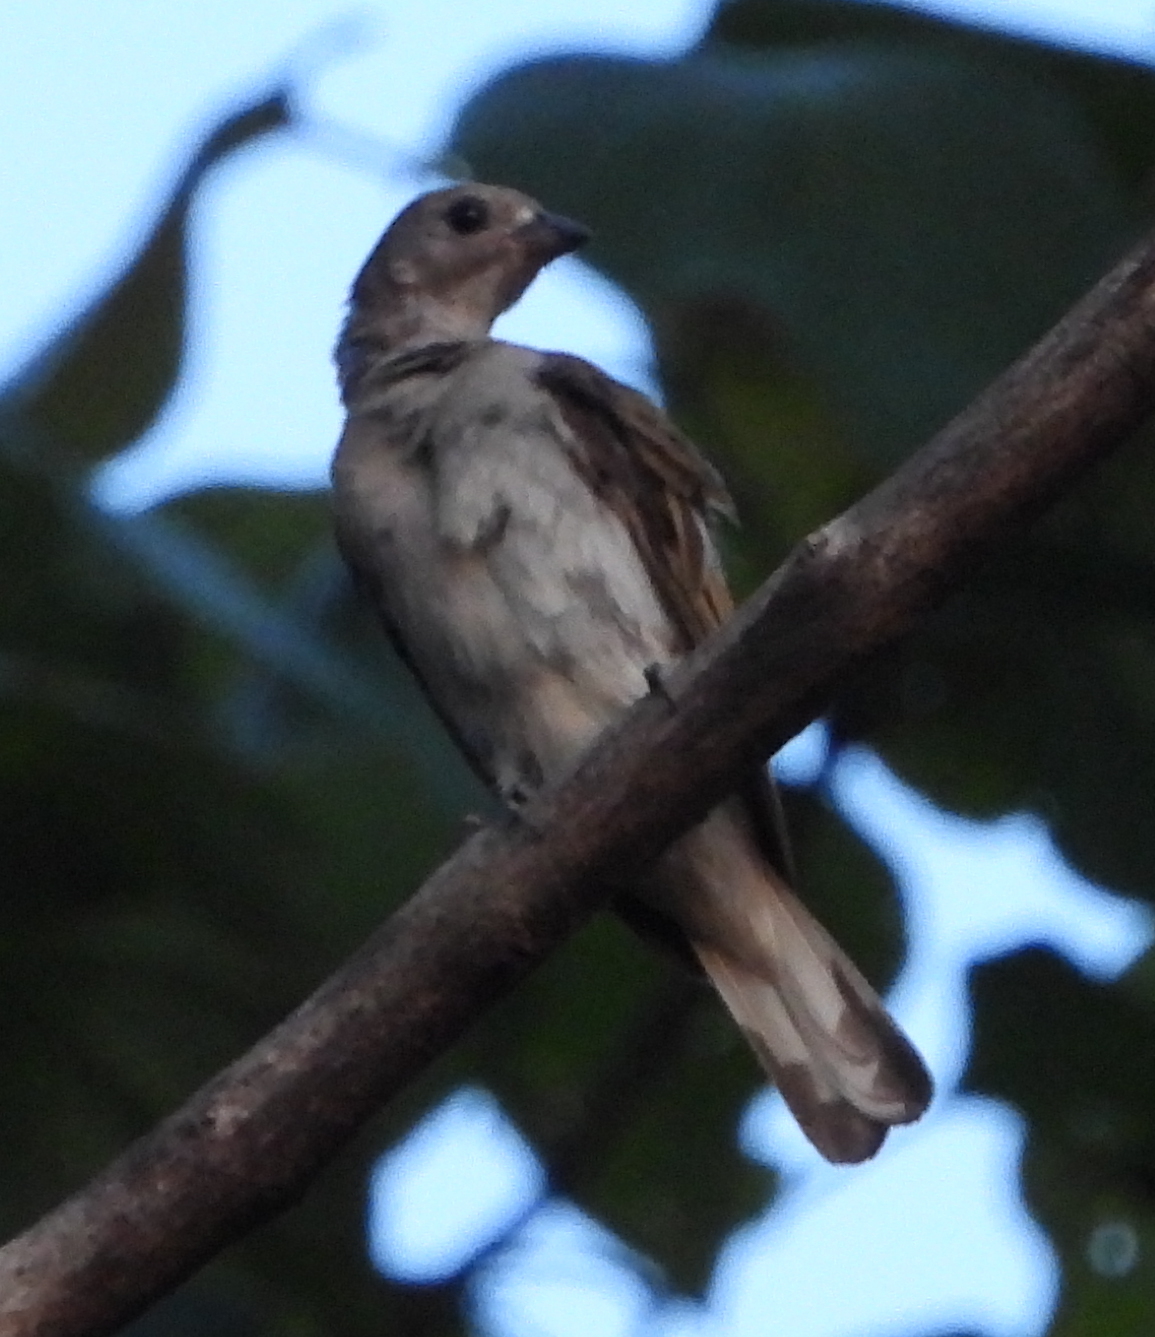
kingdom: Animalia
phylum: Chordata
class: Aves
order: Piciformes
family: Indicatoridae
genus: Indicator
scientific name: Indicator minor
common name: Lesser honeyguide
